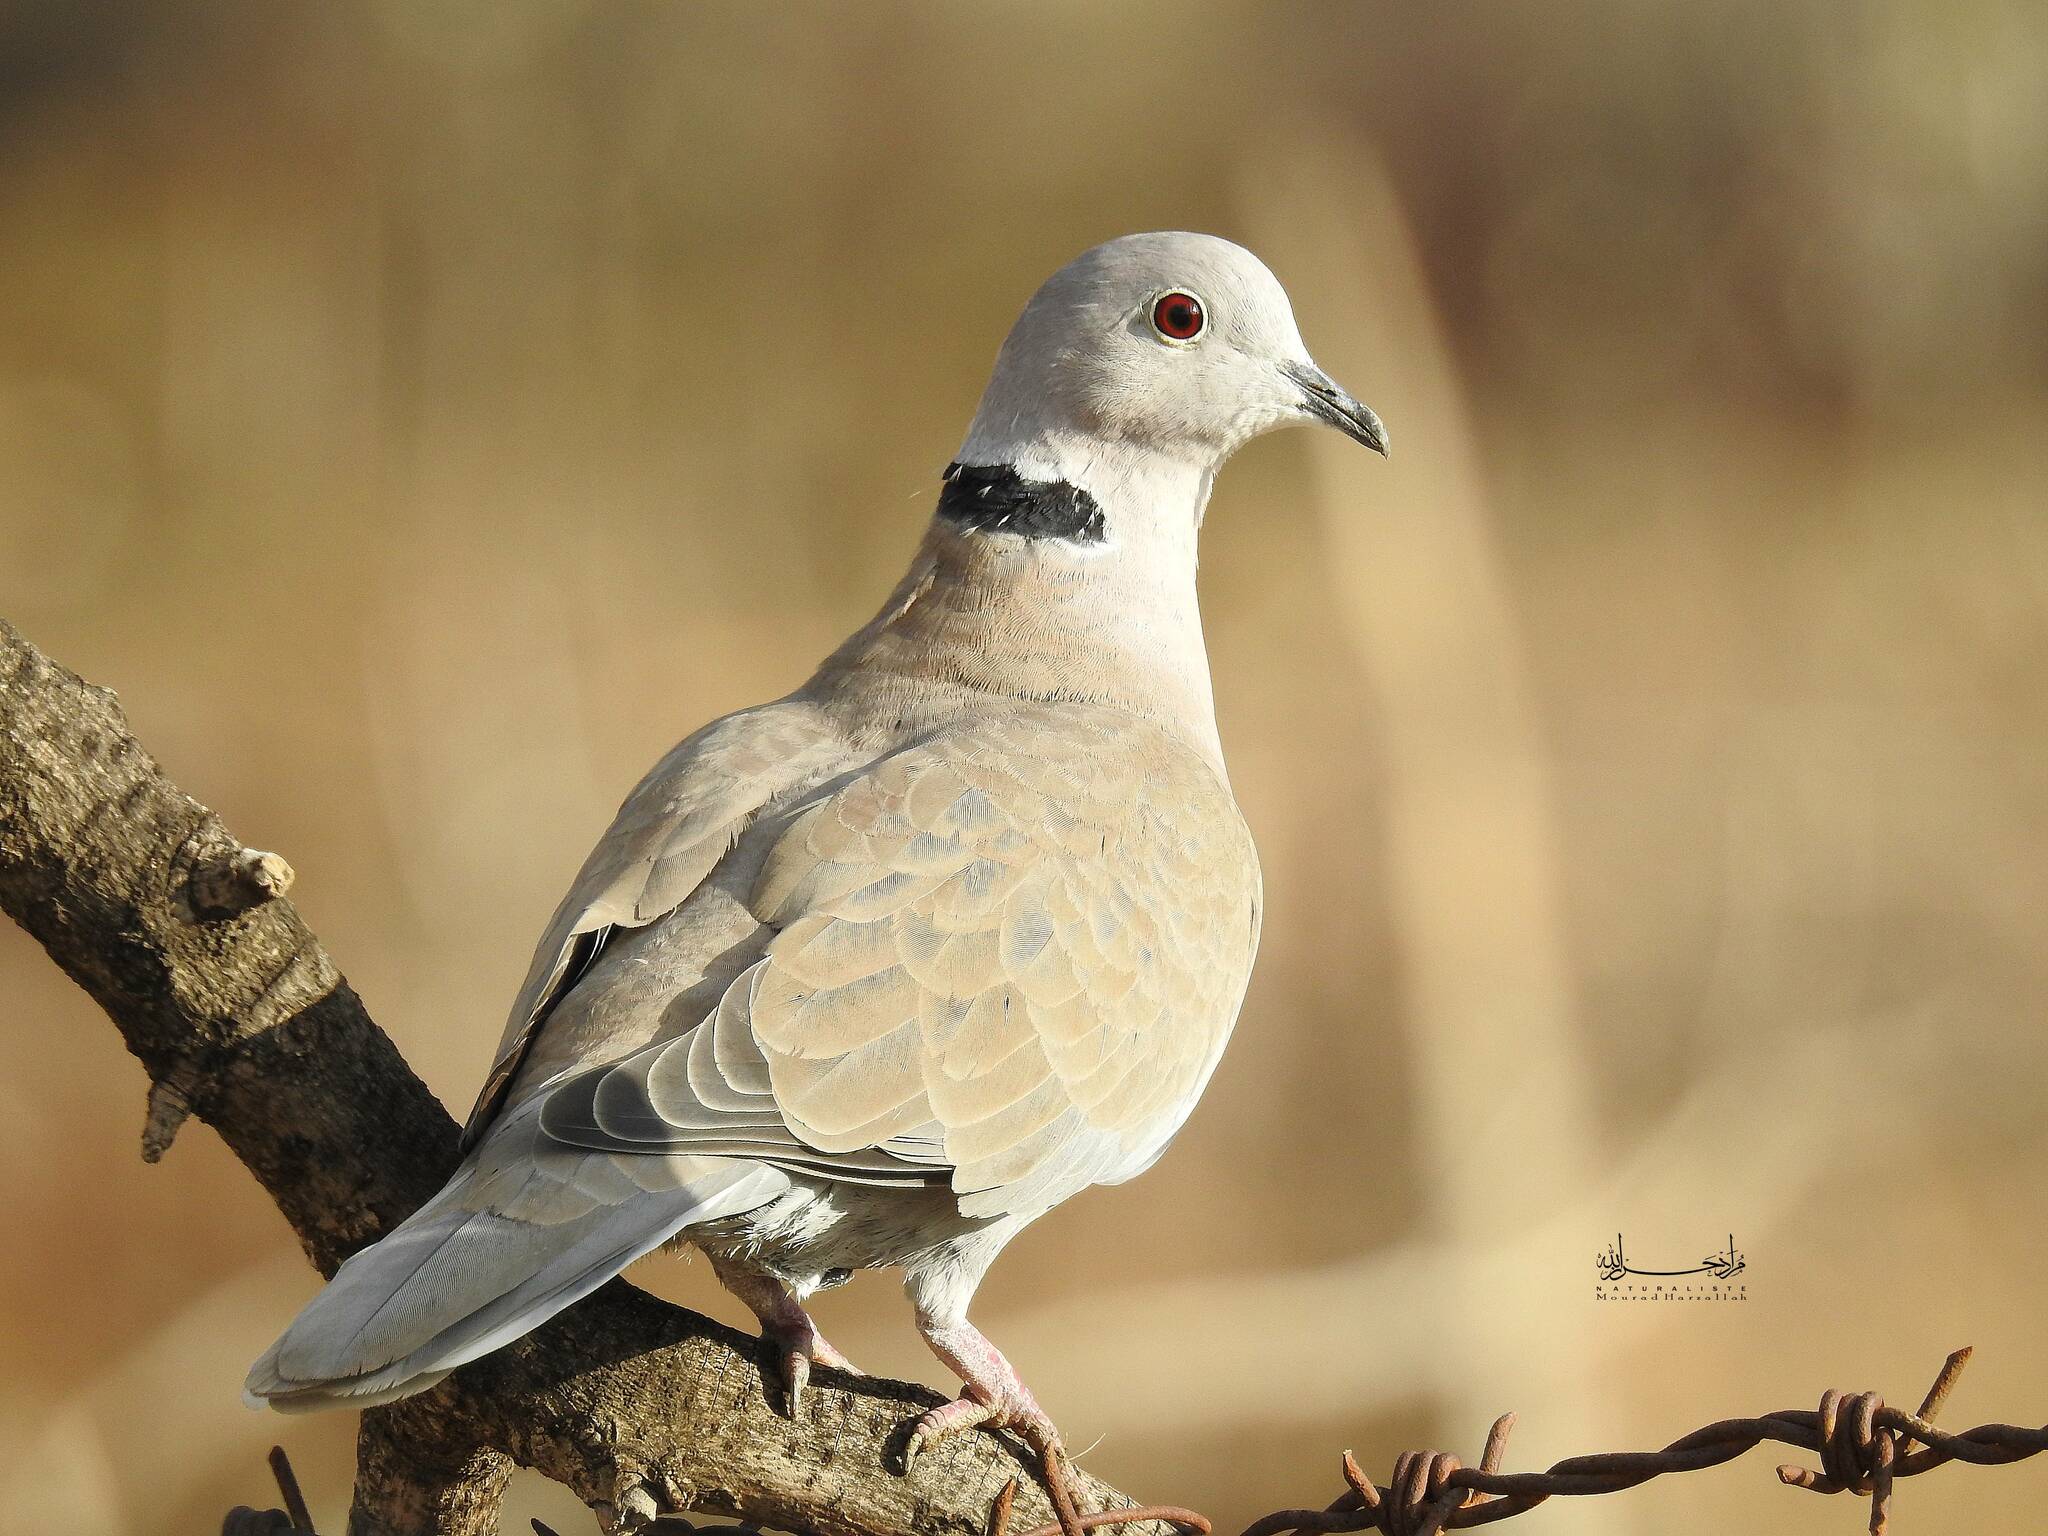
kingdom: Animalia
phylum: Chordata
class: Aves
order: Columbiformes
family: Columbidae
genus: Streptopelia
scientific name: Streptopelia decaocto
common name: Eurasian collared dove
